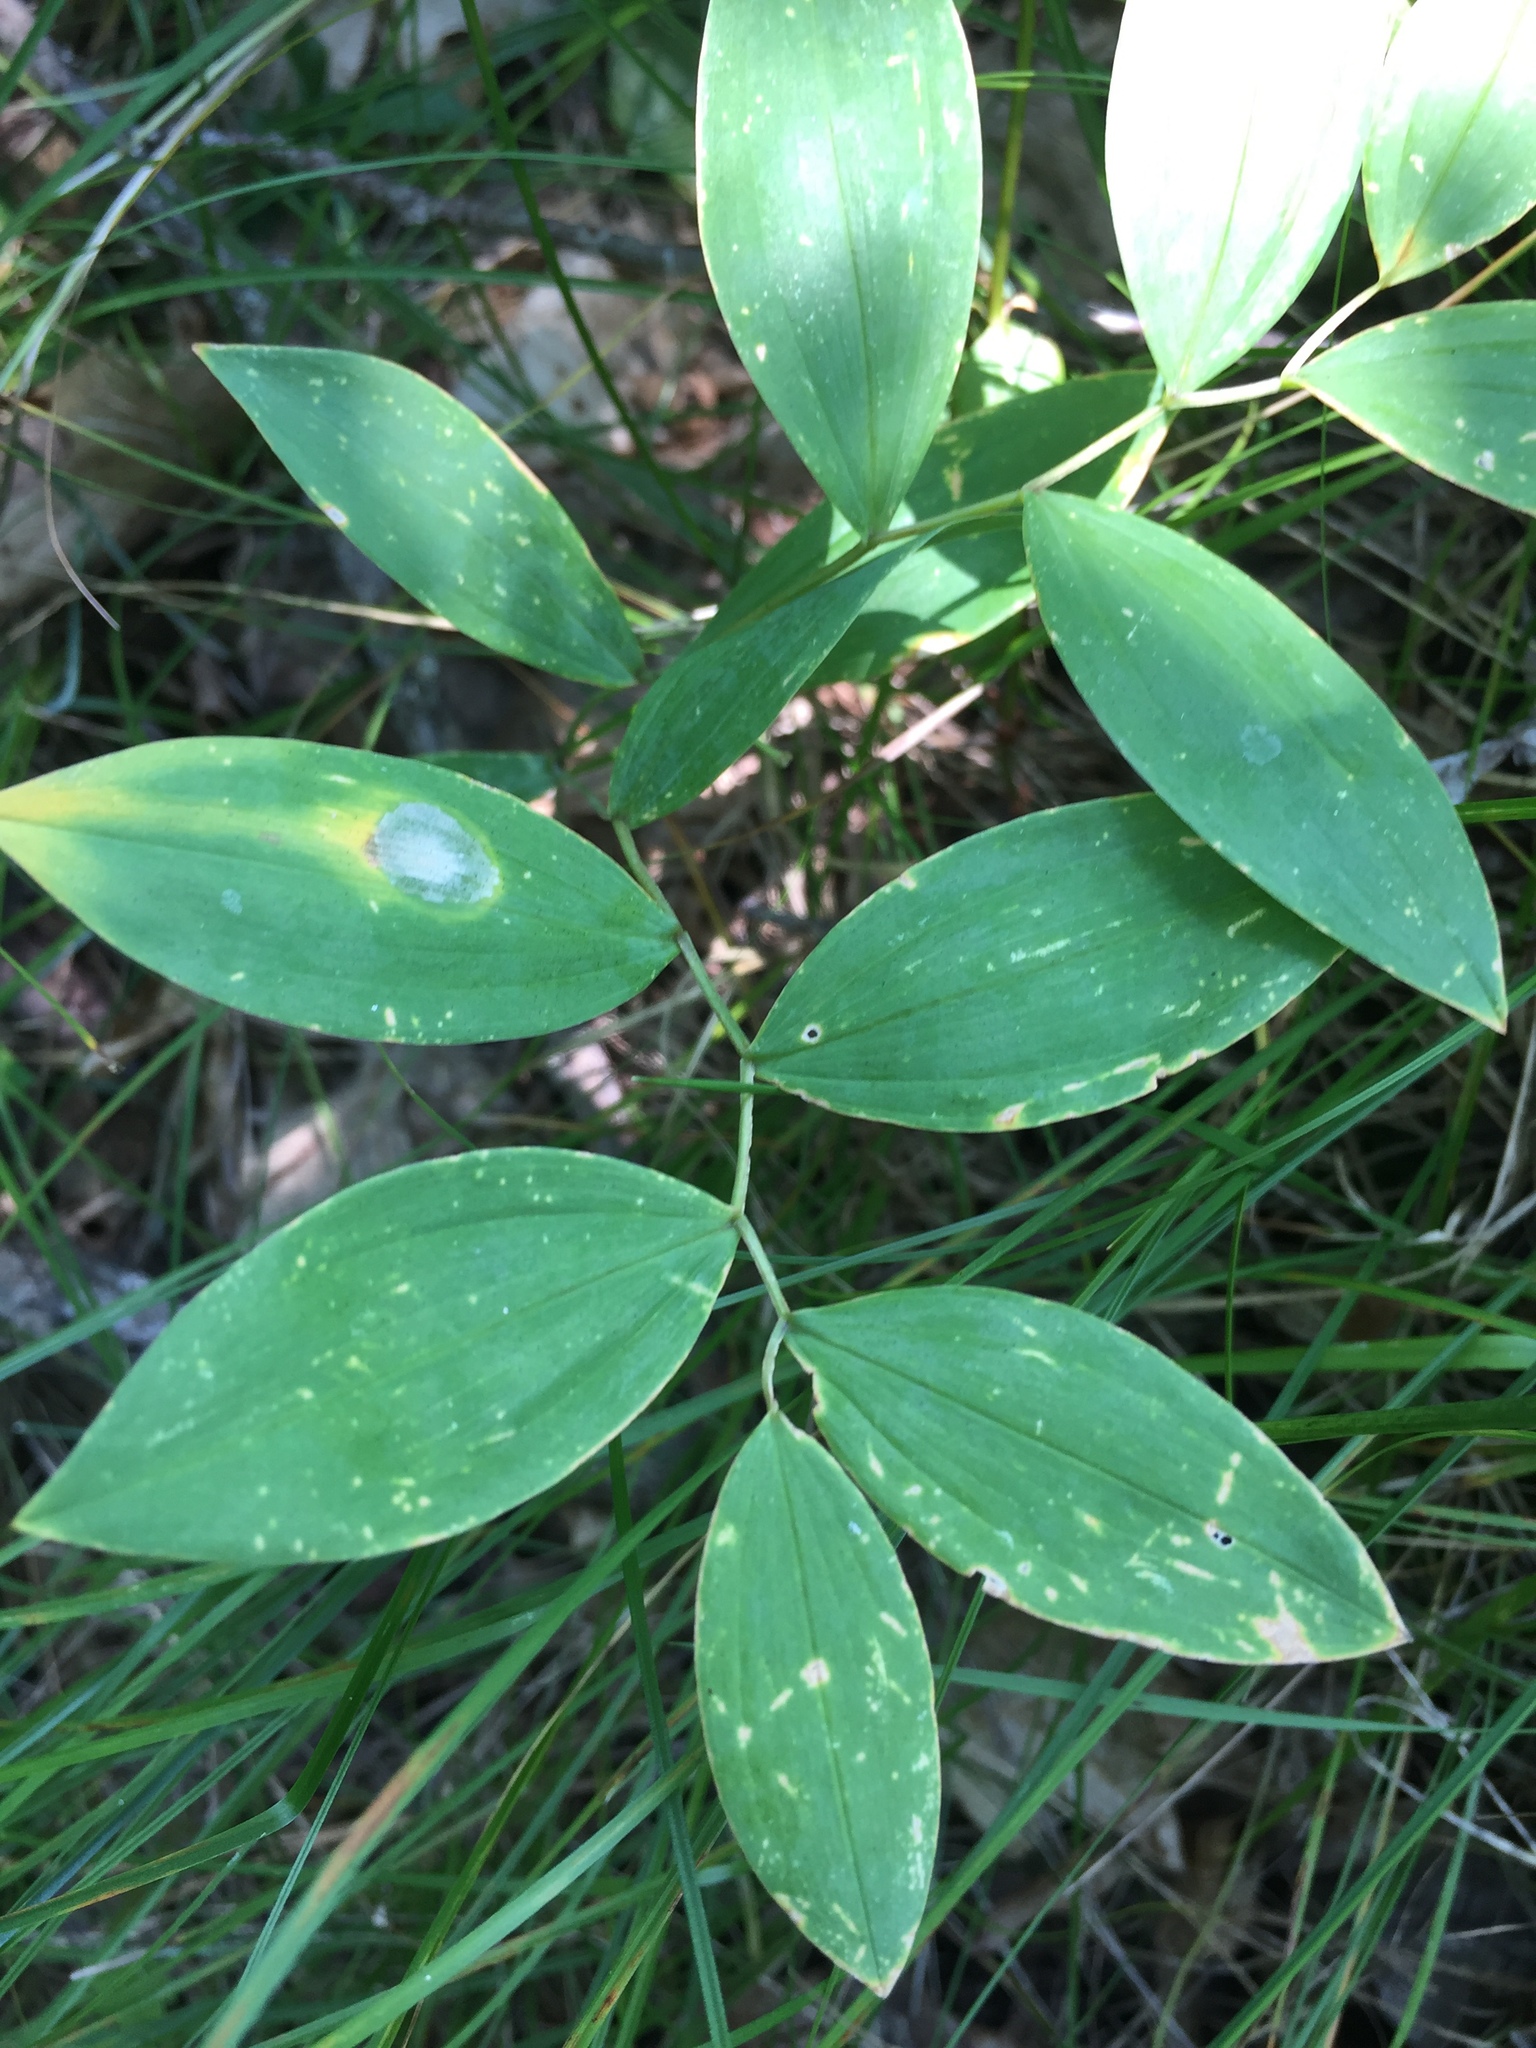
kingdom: Plantae
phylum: Tracheophyta
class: Liliopsida
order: Liliales
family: Colchicaceae
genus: Uvularia
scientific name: Uvularia sessilifolia
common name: Straw-lily
